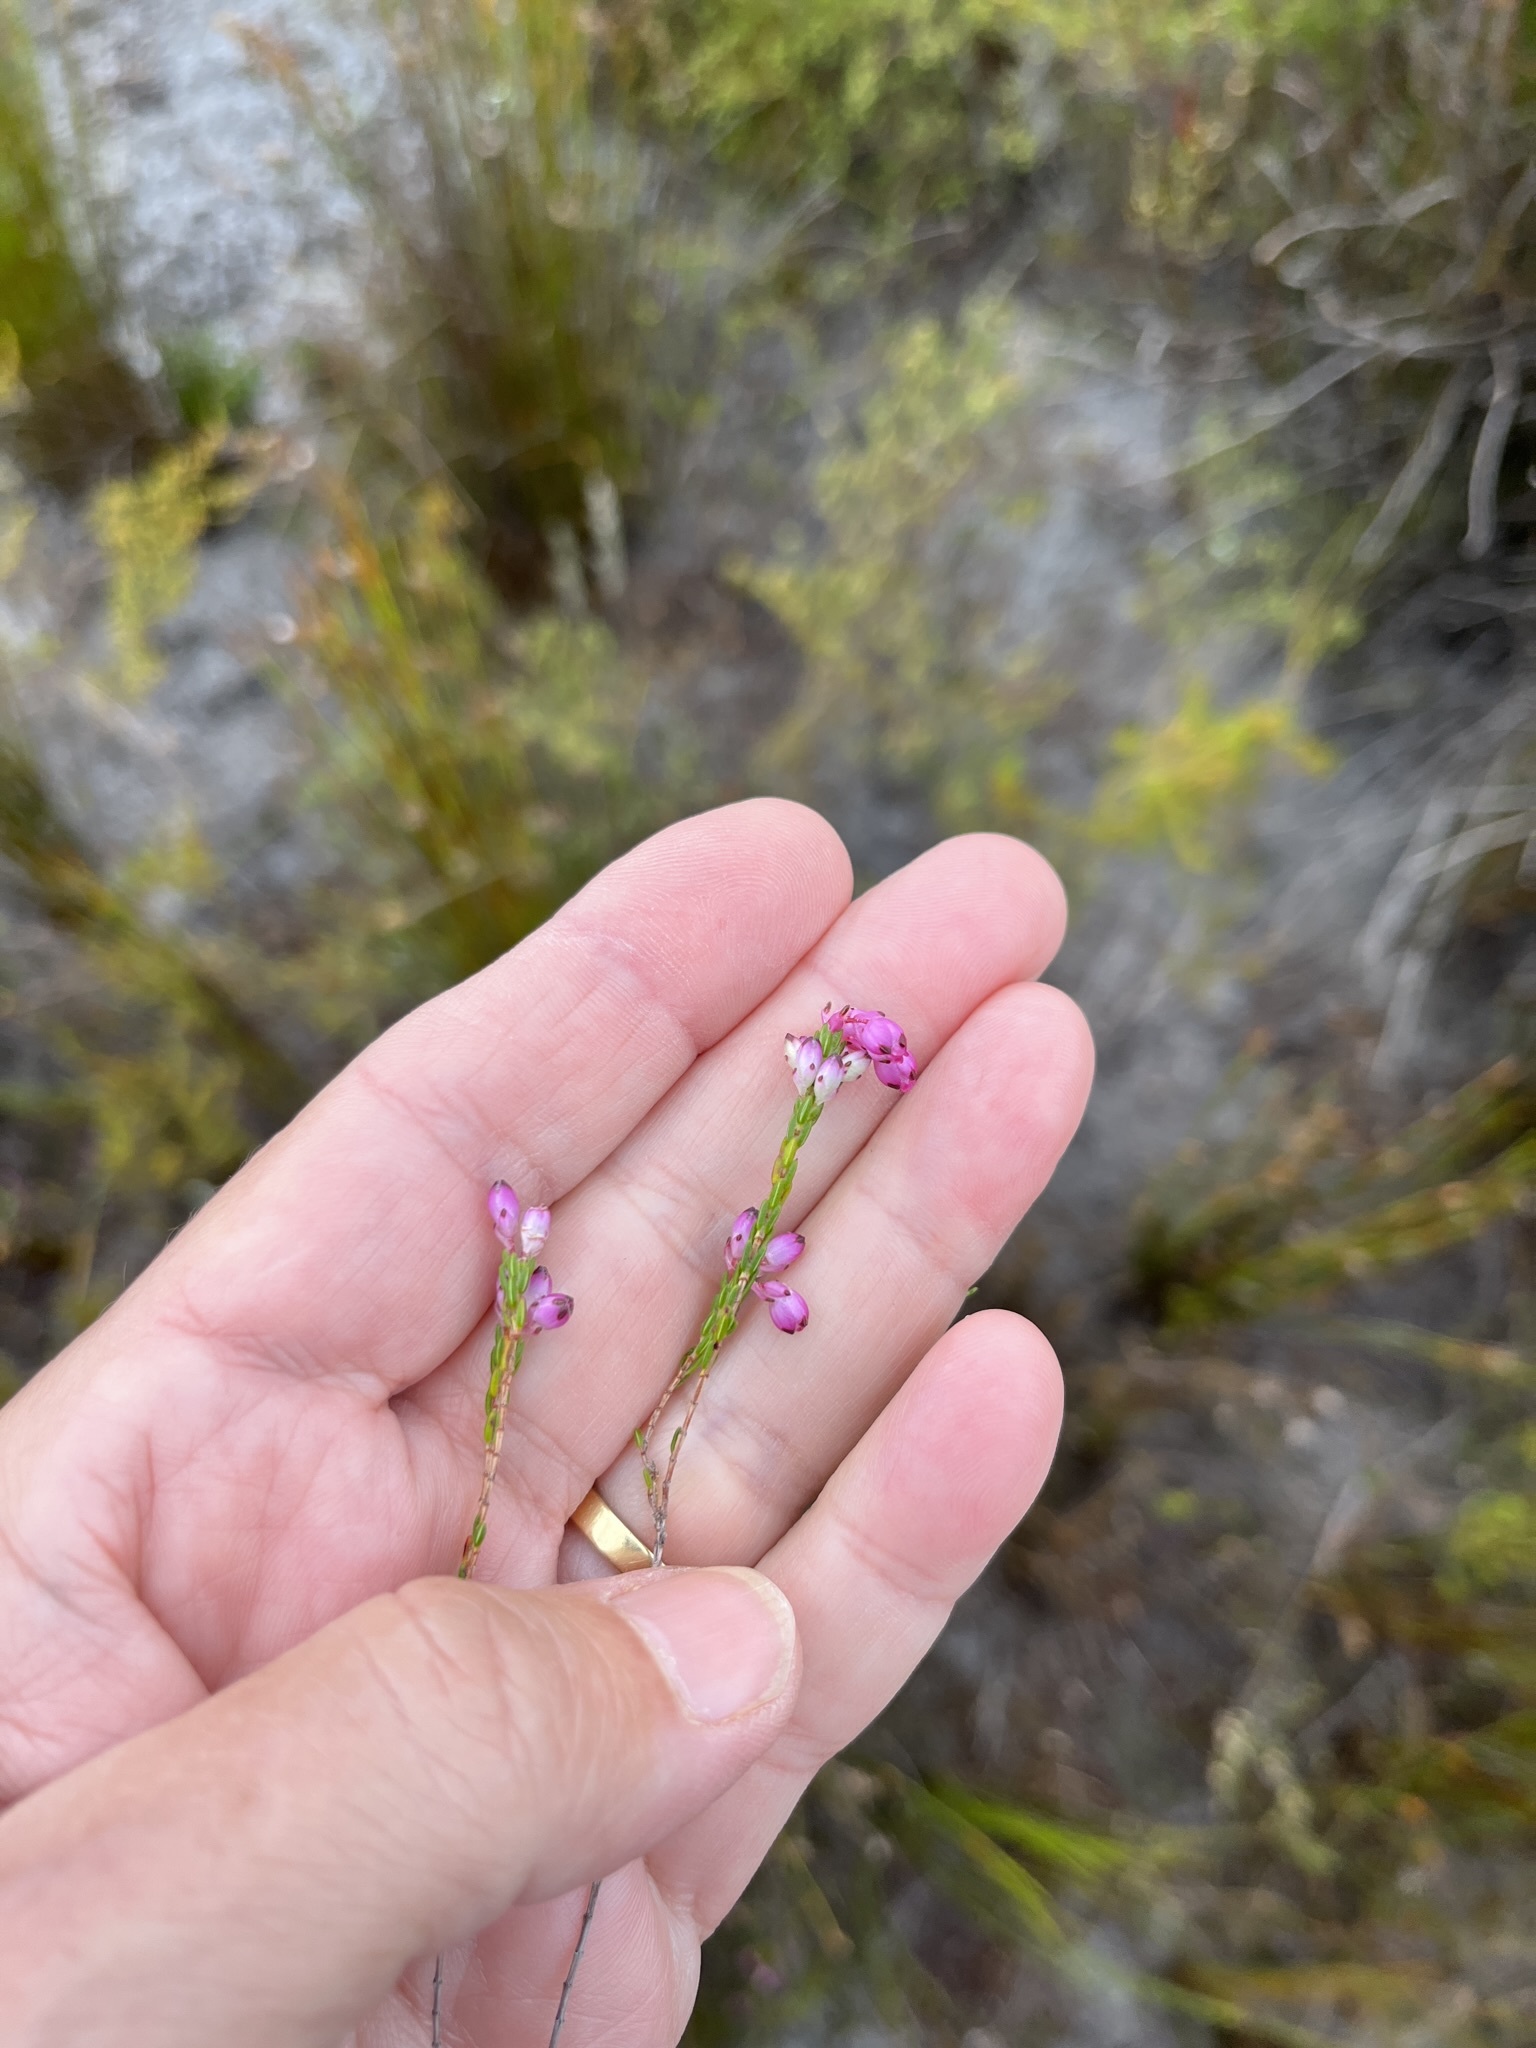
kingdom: Plantae
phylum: Tracheophyta
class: Magnoliopsida
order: Ericales
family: Ericaceae
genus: Erica
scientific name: Erica melanacme
